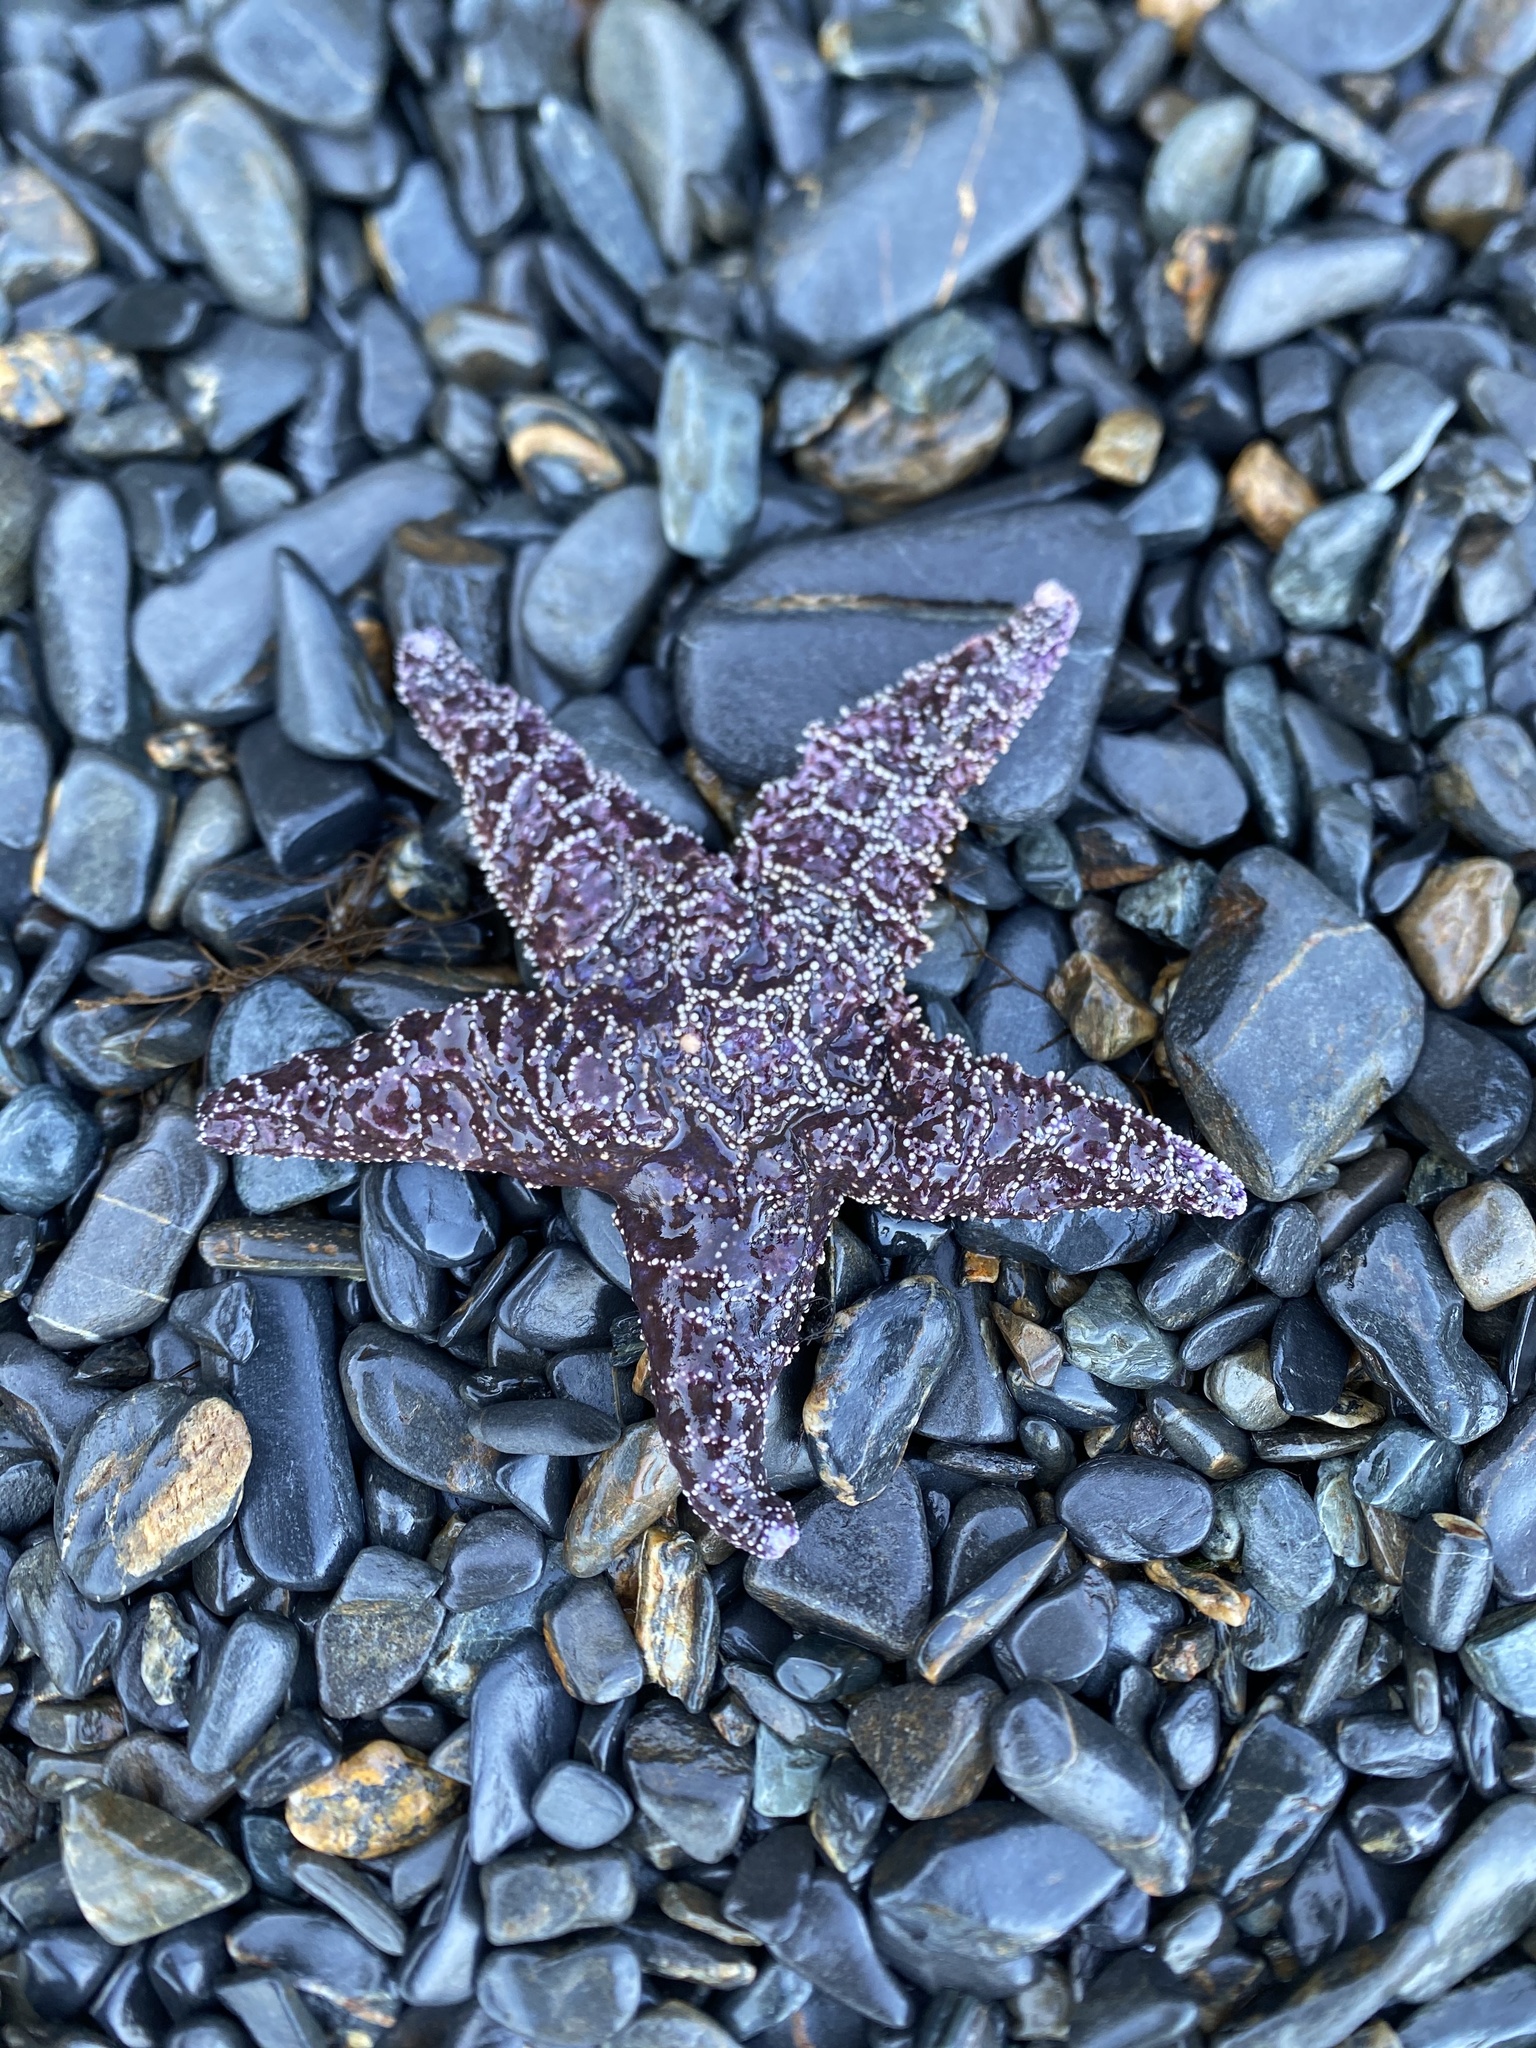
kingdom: Animalia
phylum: Echinodermata
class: Asteroidea
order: Forcipulatida
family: Asteriidae
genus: Pisaster
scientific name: Pisaster ochraceus
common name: Ochre stars
